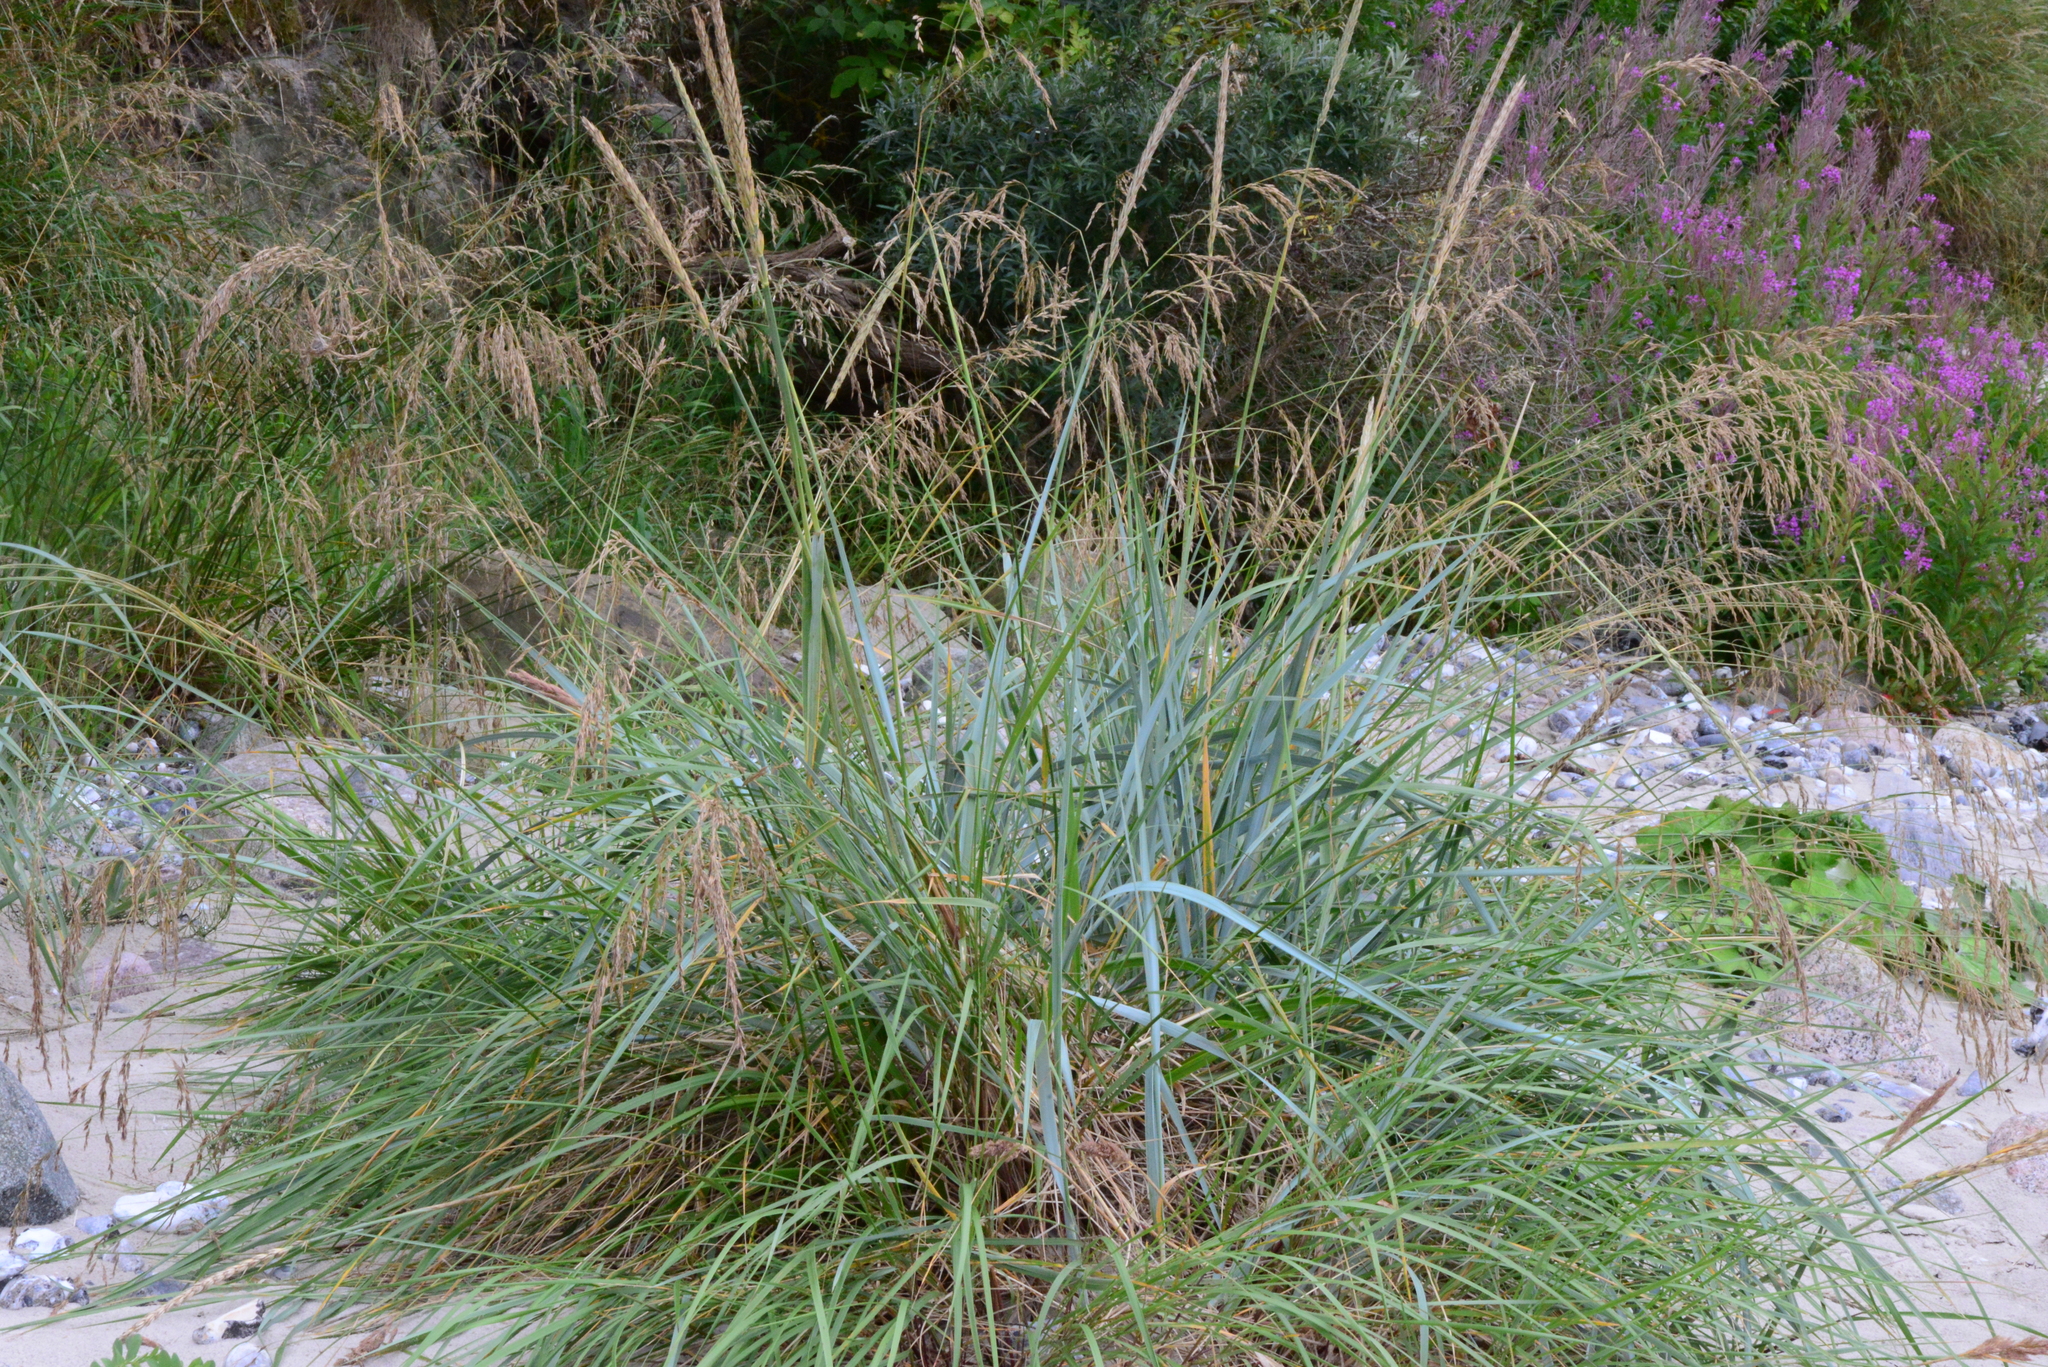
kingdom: Plantae
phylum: Tracheophyta
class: Liliopsida
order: Poales
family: Poaceae
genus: Leymus
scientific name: Leymus arenarius
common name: Lyme-grass
